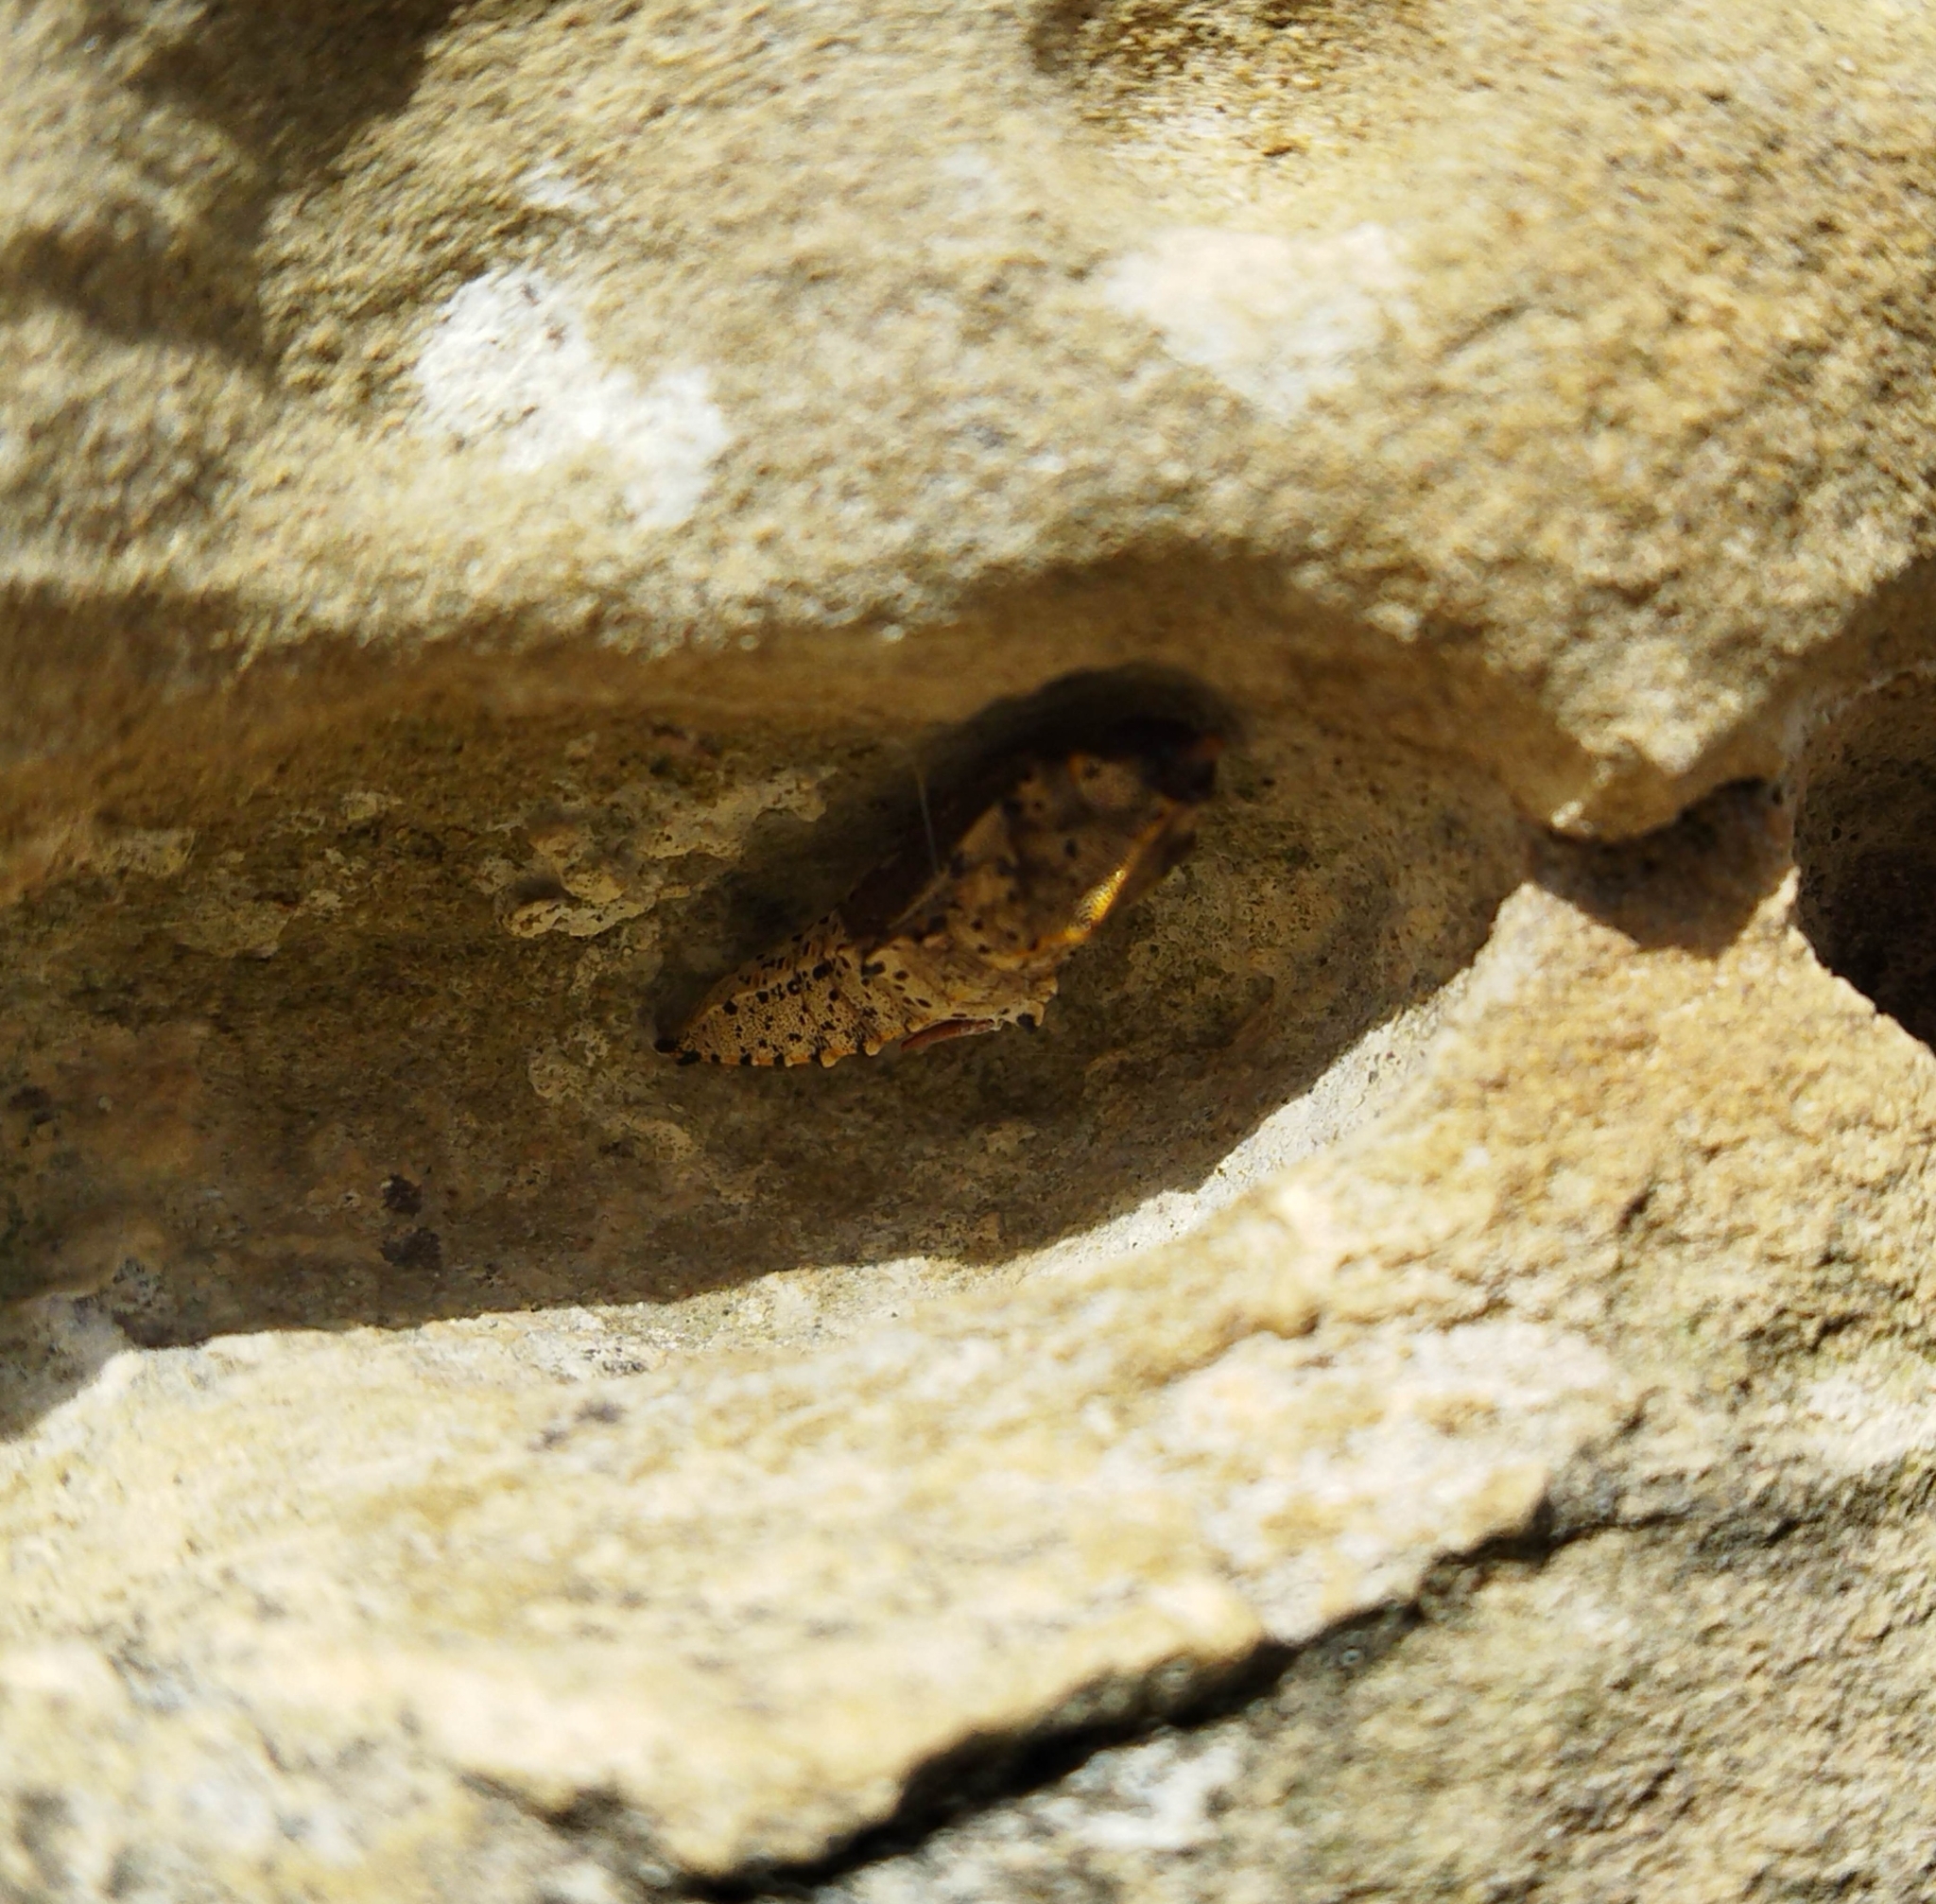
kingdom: Animalia
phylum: Arthropoda
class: Insecta
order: Lepidoptera
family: Pieridae
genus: Pieris
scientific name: Pieris brassicae
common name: Large white
